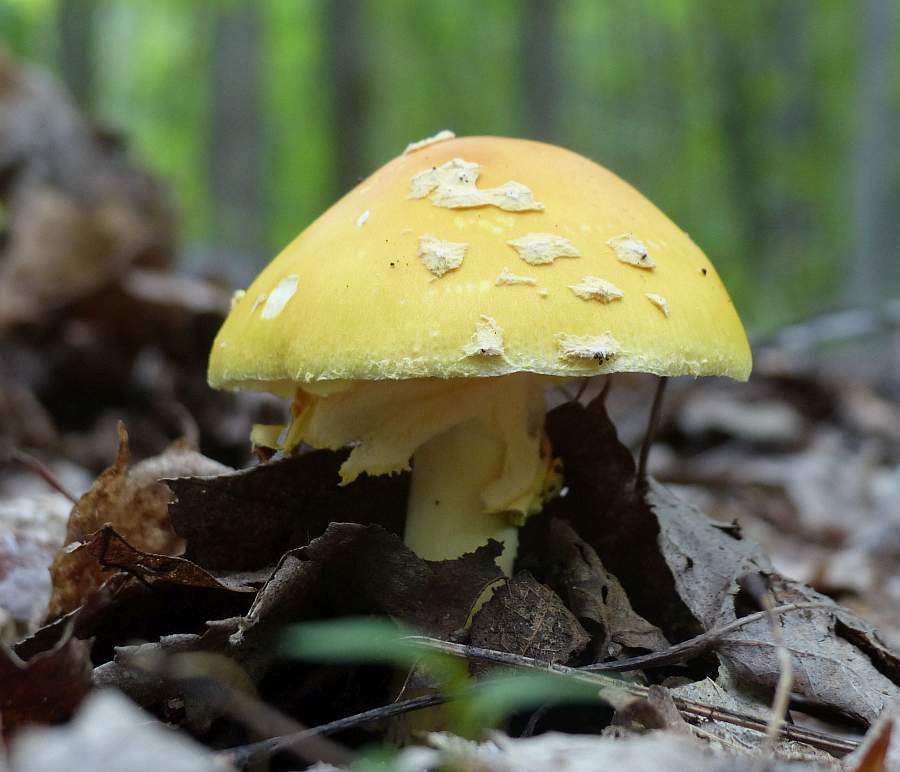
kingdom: Fungi
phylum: Basidiomycota
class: Agaricomycetes
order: Agaricales
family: Amanitaceae
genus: Amanita
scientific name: Amanita muscaria
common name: Fly agaric
